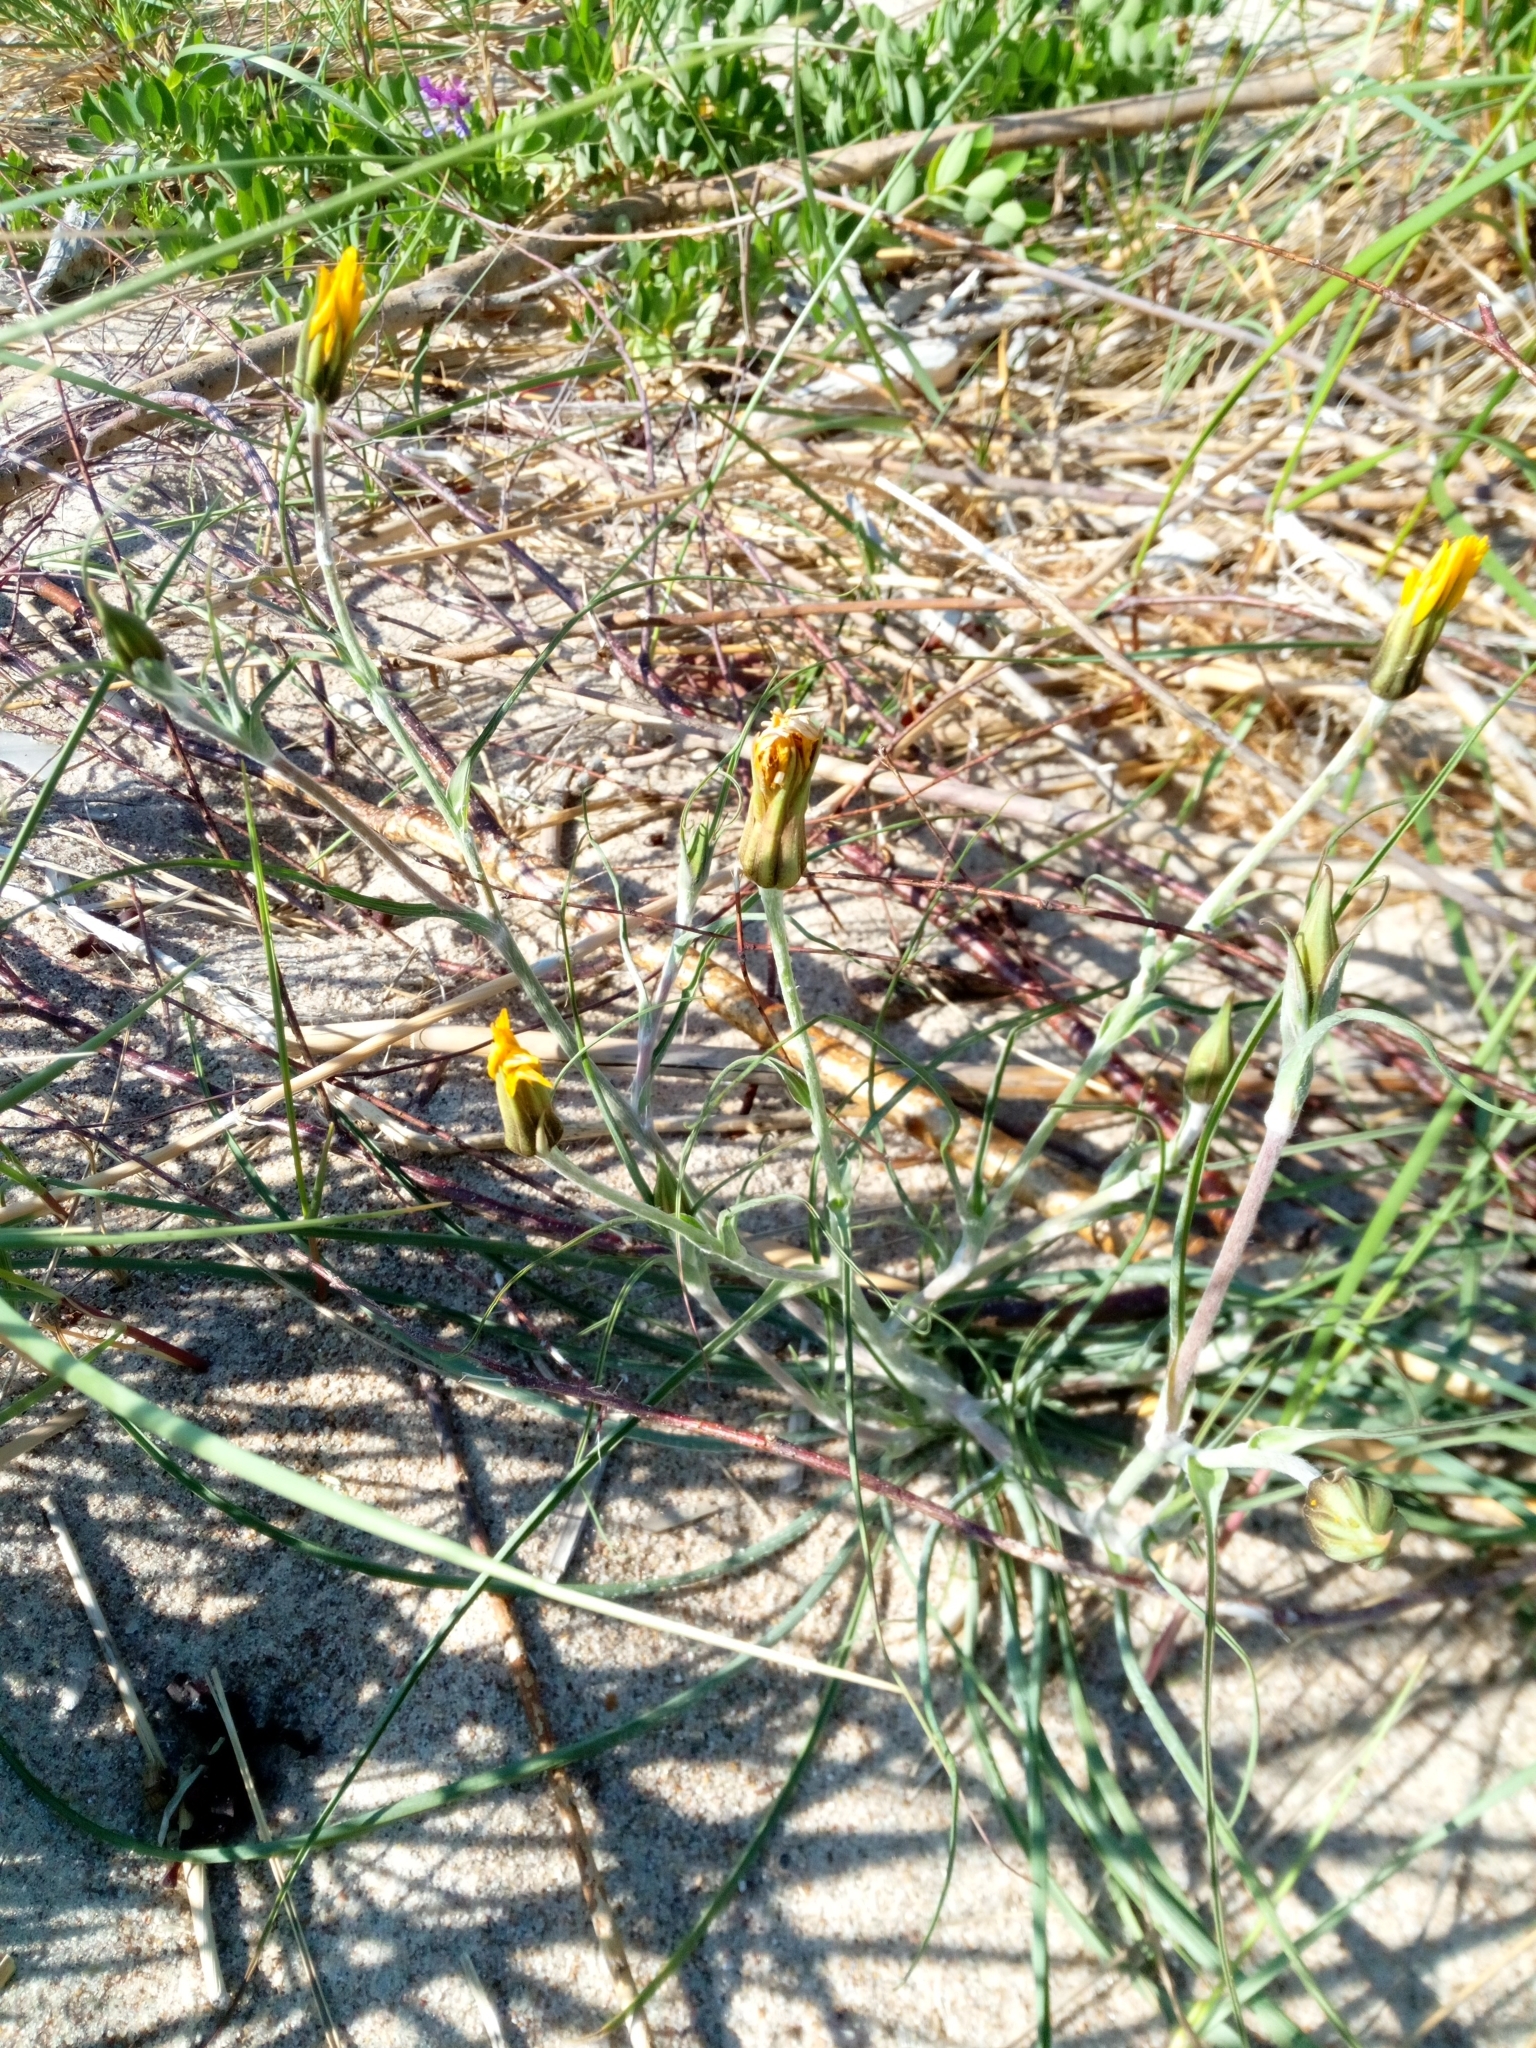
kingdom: Plantae
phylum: Tracheophyta
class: Magnoliopsida
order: Asterales
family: Asteraceae
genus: Tragopogon
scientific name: Tragopogon heterospermus
